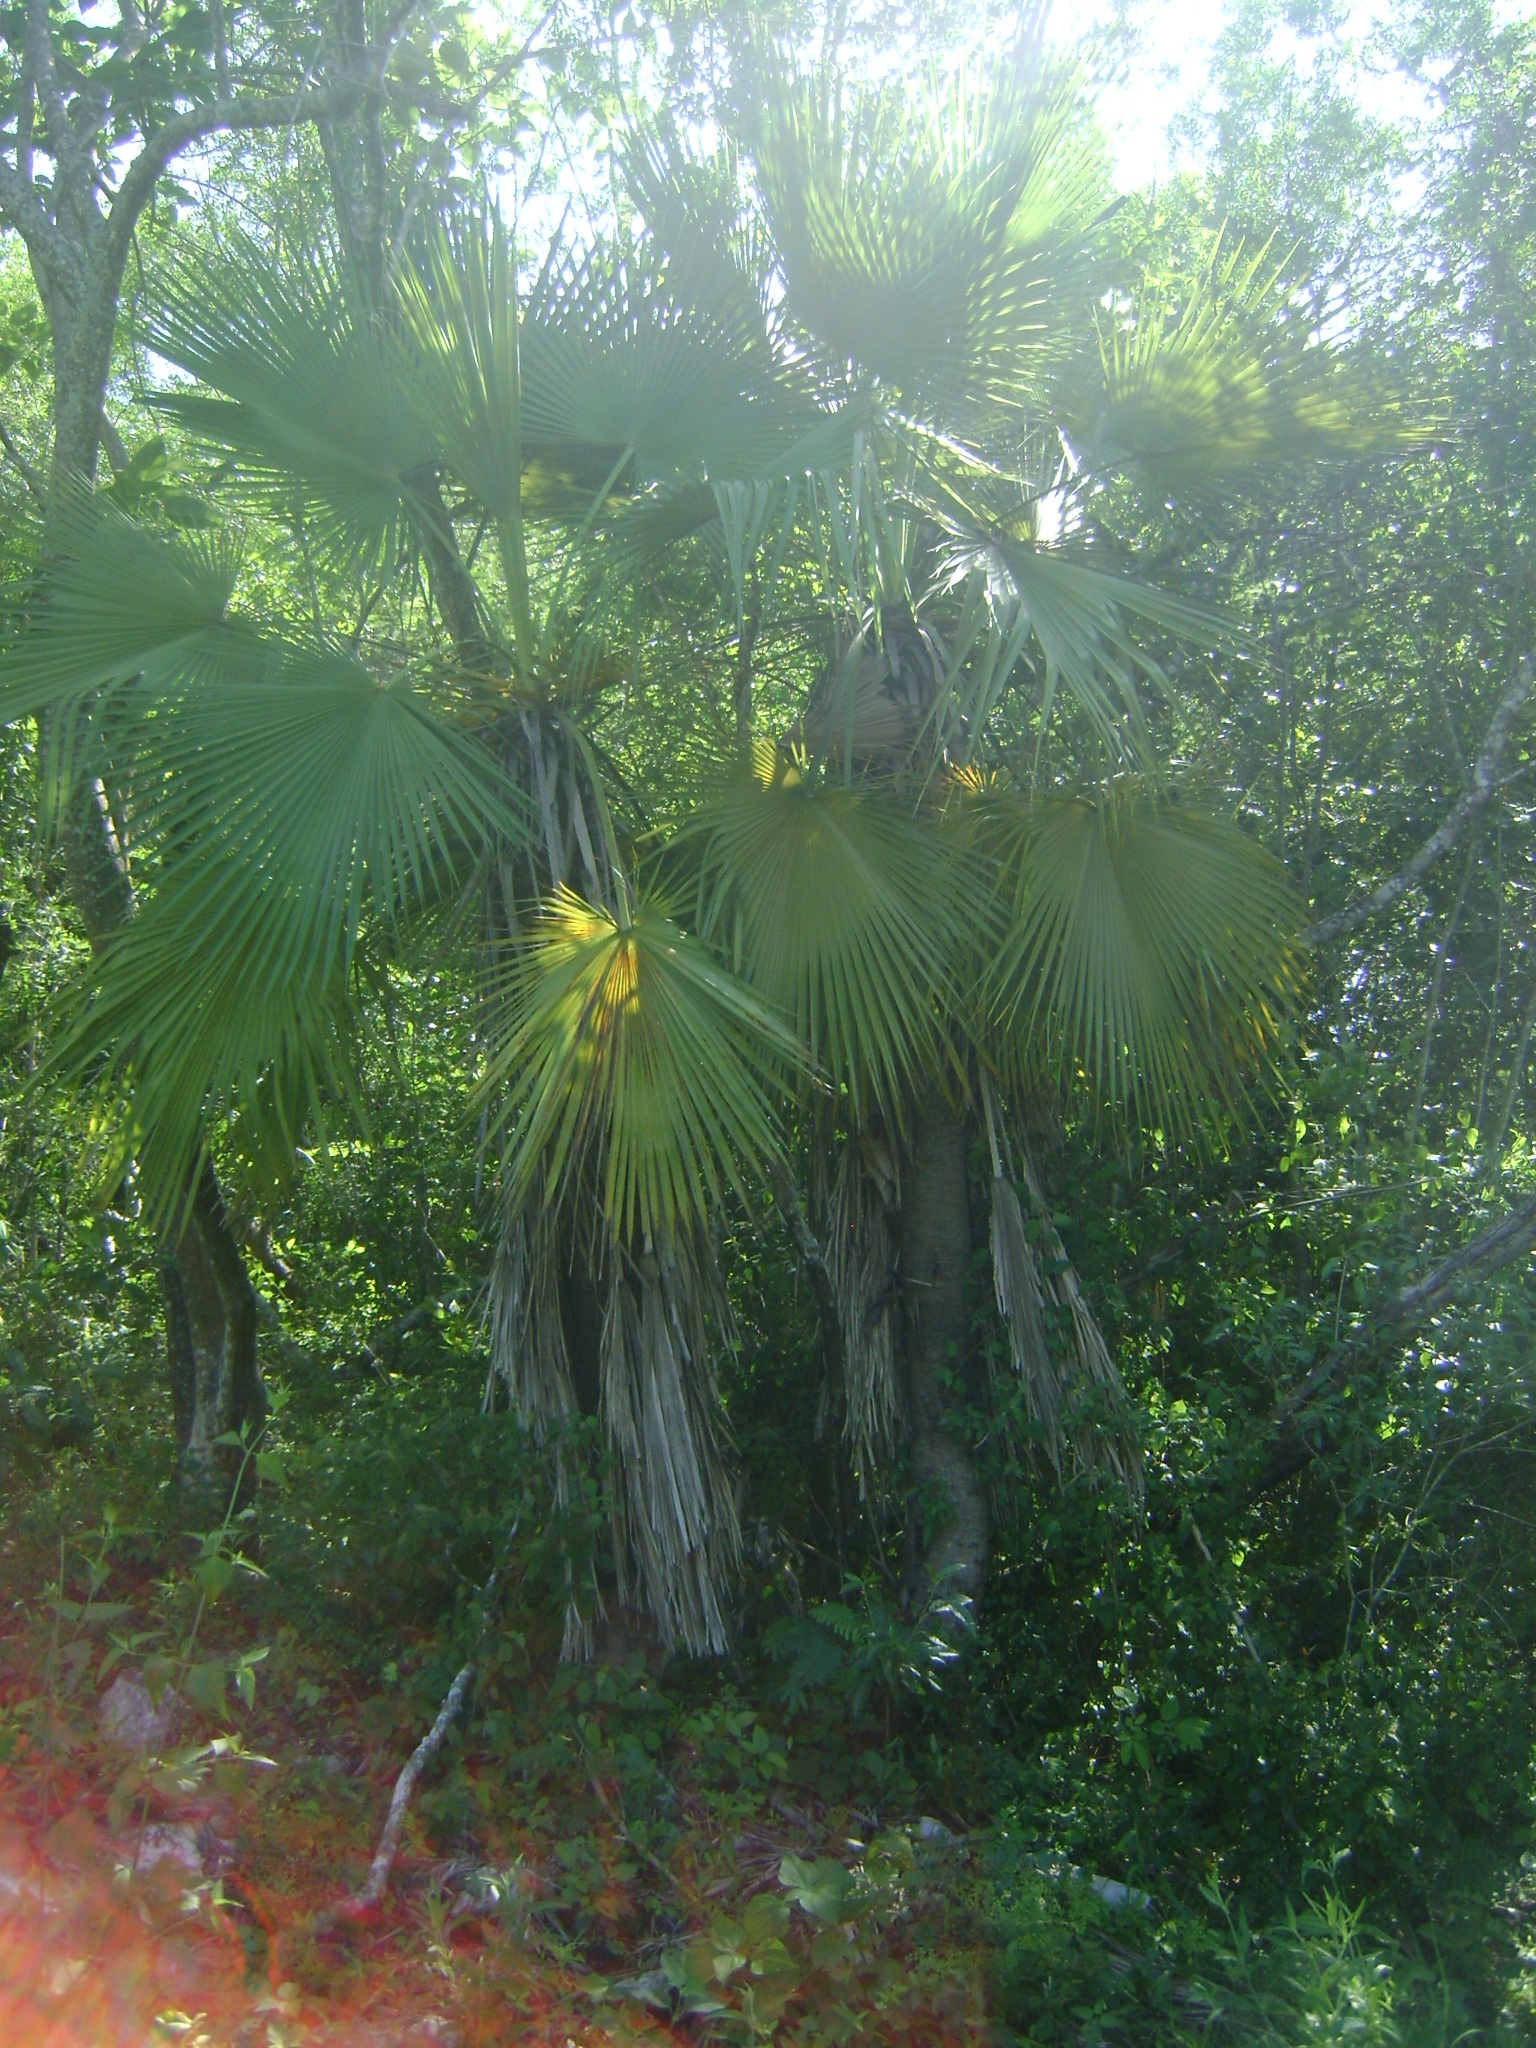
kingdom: Plantae
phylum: Tracheophyta
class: Liliopsida
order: Arecales
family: Arecaceae
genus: Brahea
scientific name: Brahea dulcis
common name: Apak palm
